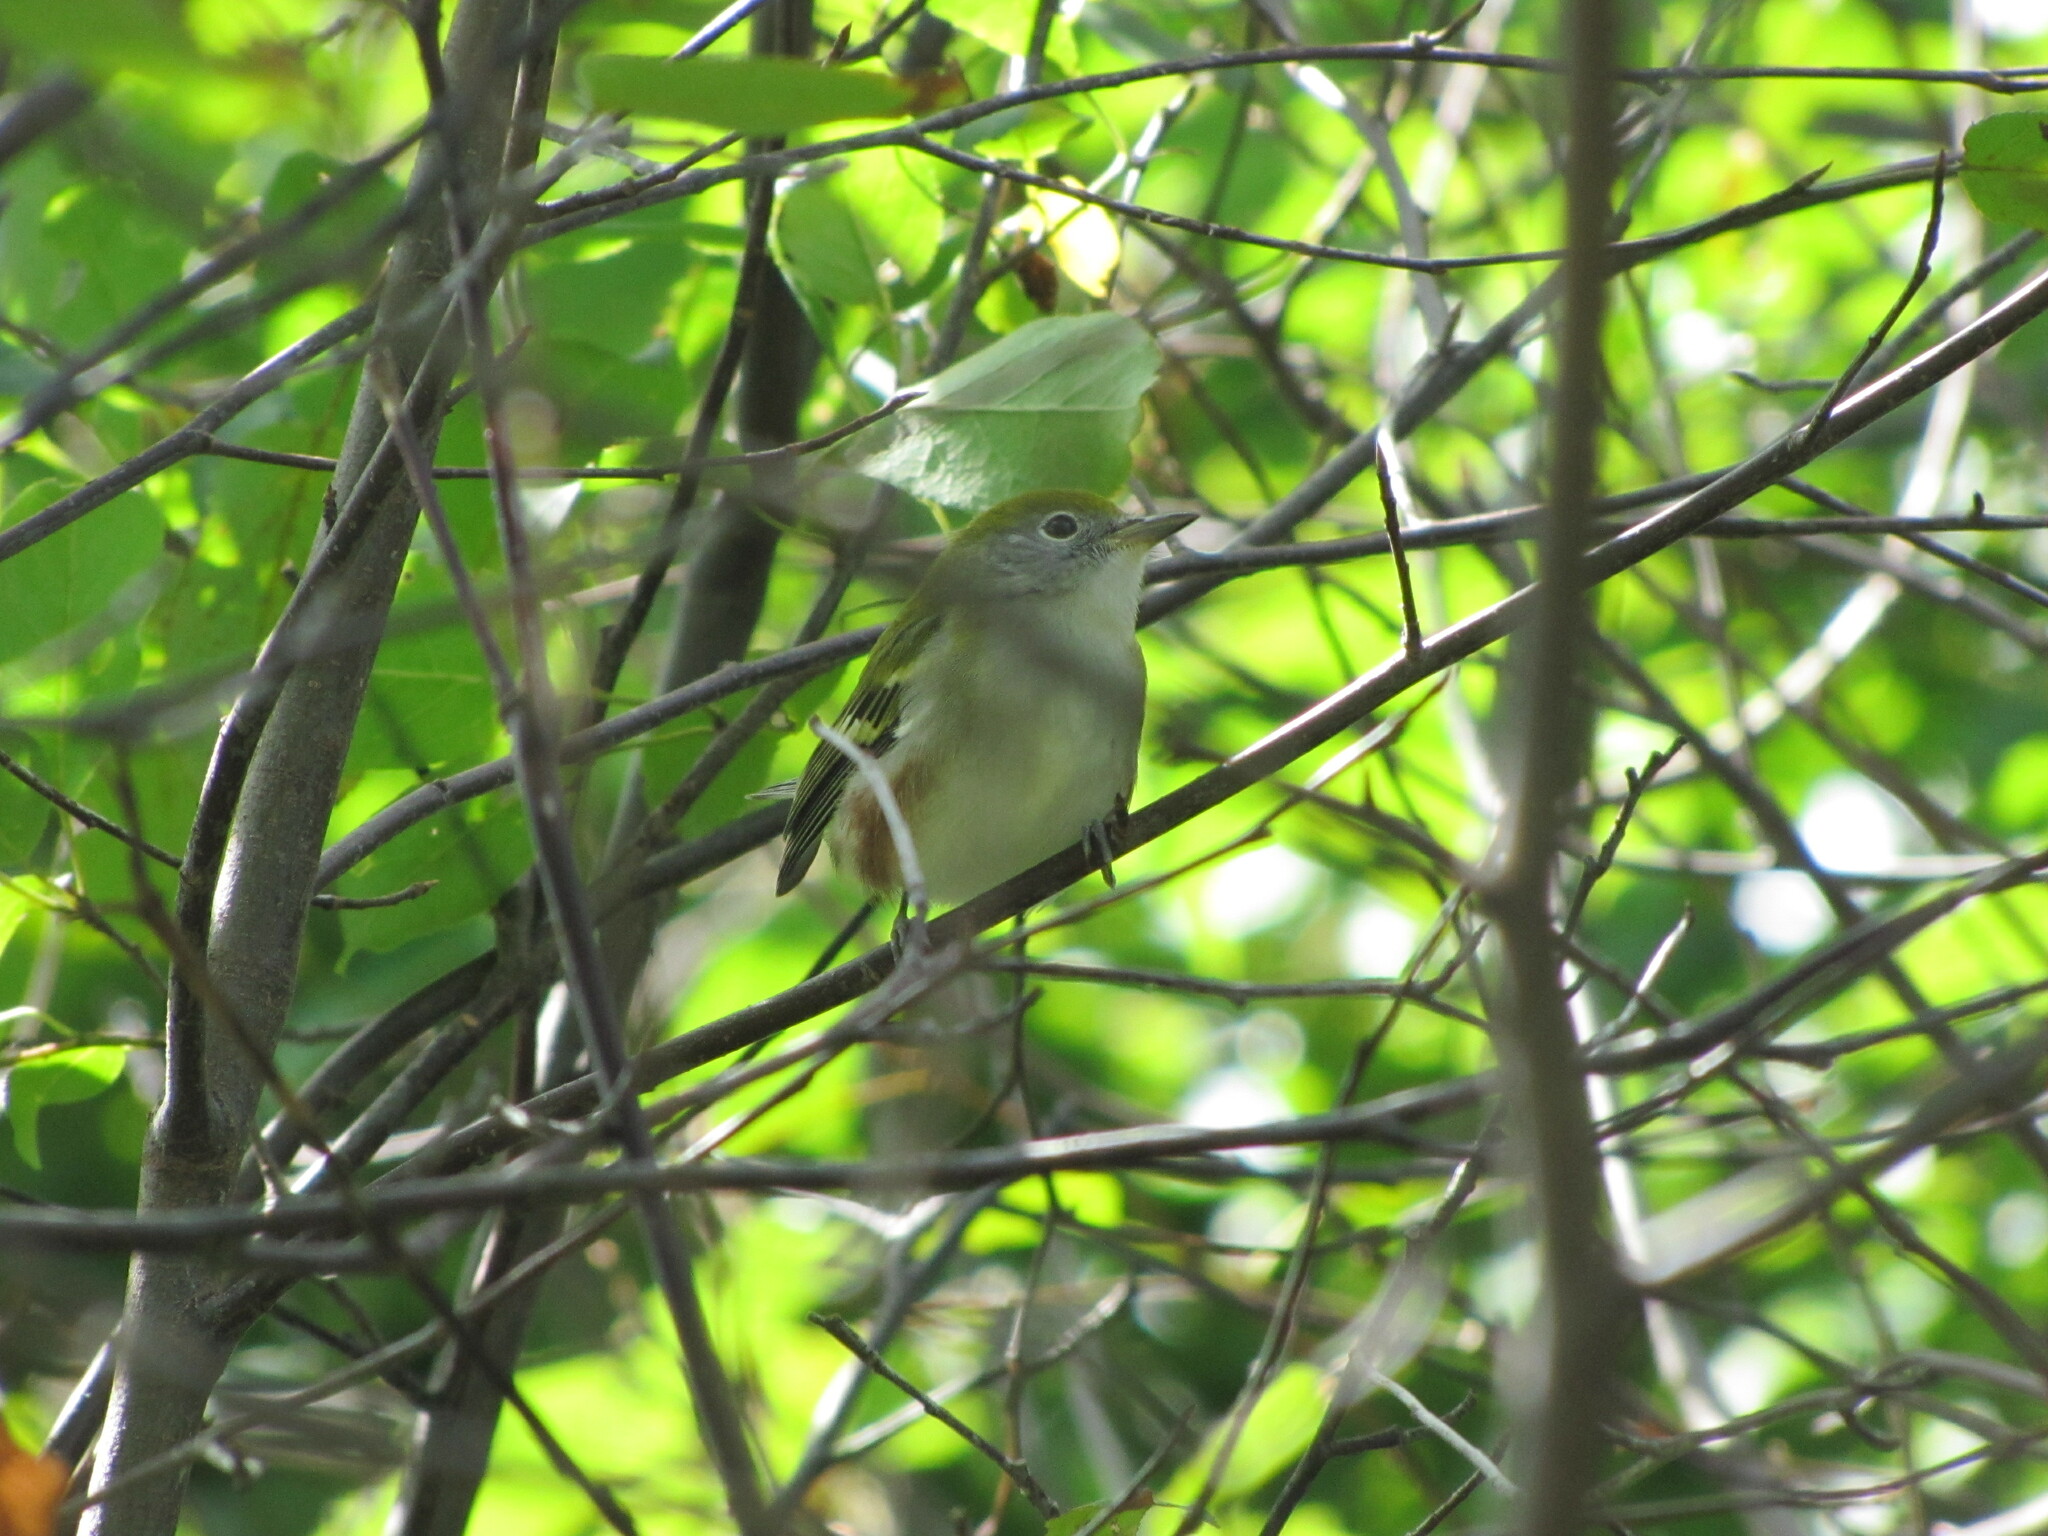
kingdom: Animalia
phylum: Chordata
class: Aves
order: Passeriformes
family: Parulidae
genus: Setophaga
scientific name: Setophaga pensylvanica
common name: Chestnut-sided warbler
